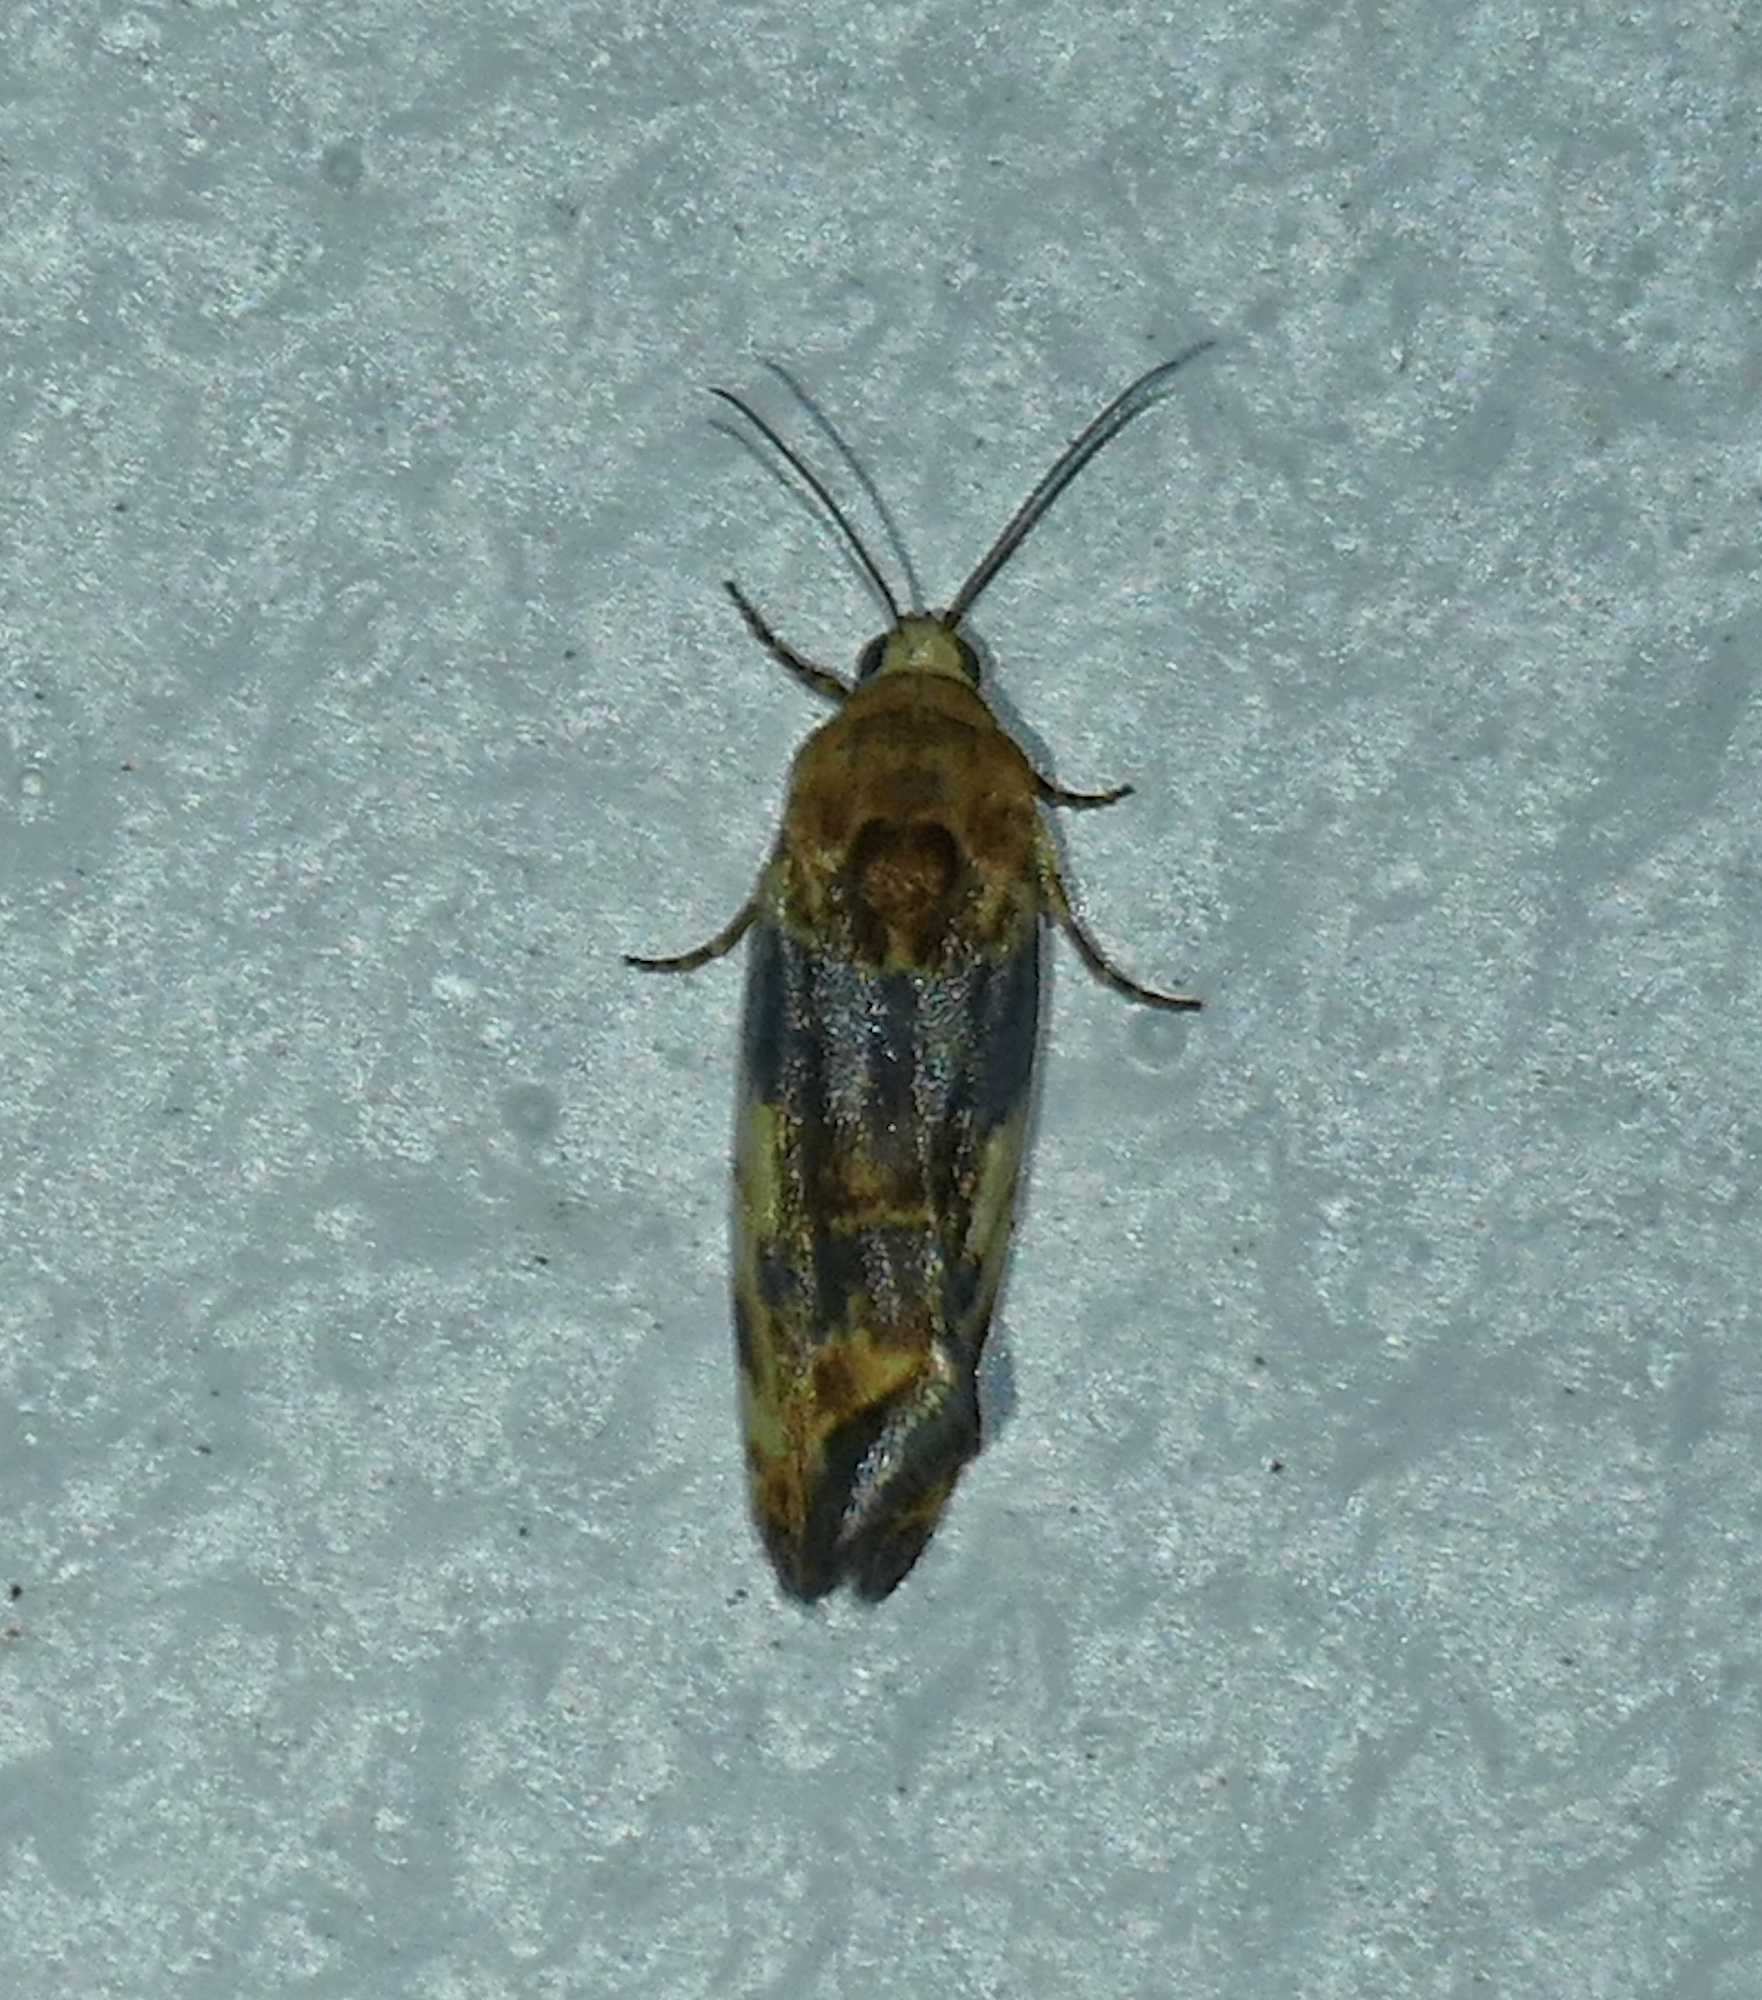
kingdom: Animalia
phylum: Arthropoda
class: Insecta
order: Lepidoptera
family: Noctuidae
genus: Acontia
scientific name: Acontia obatra
